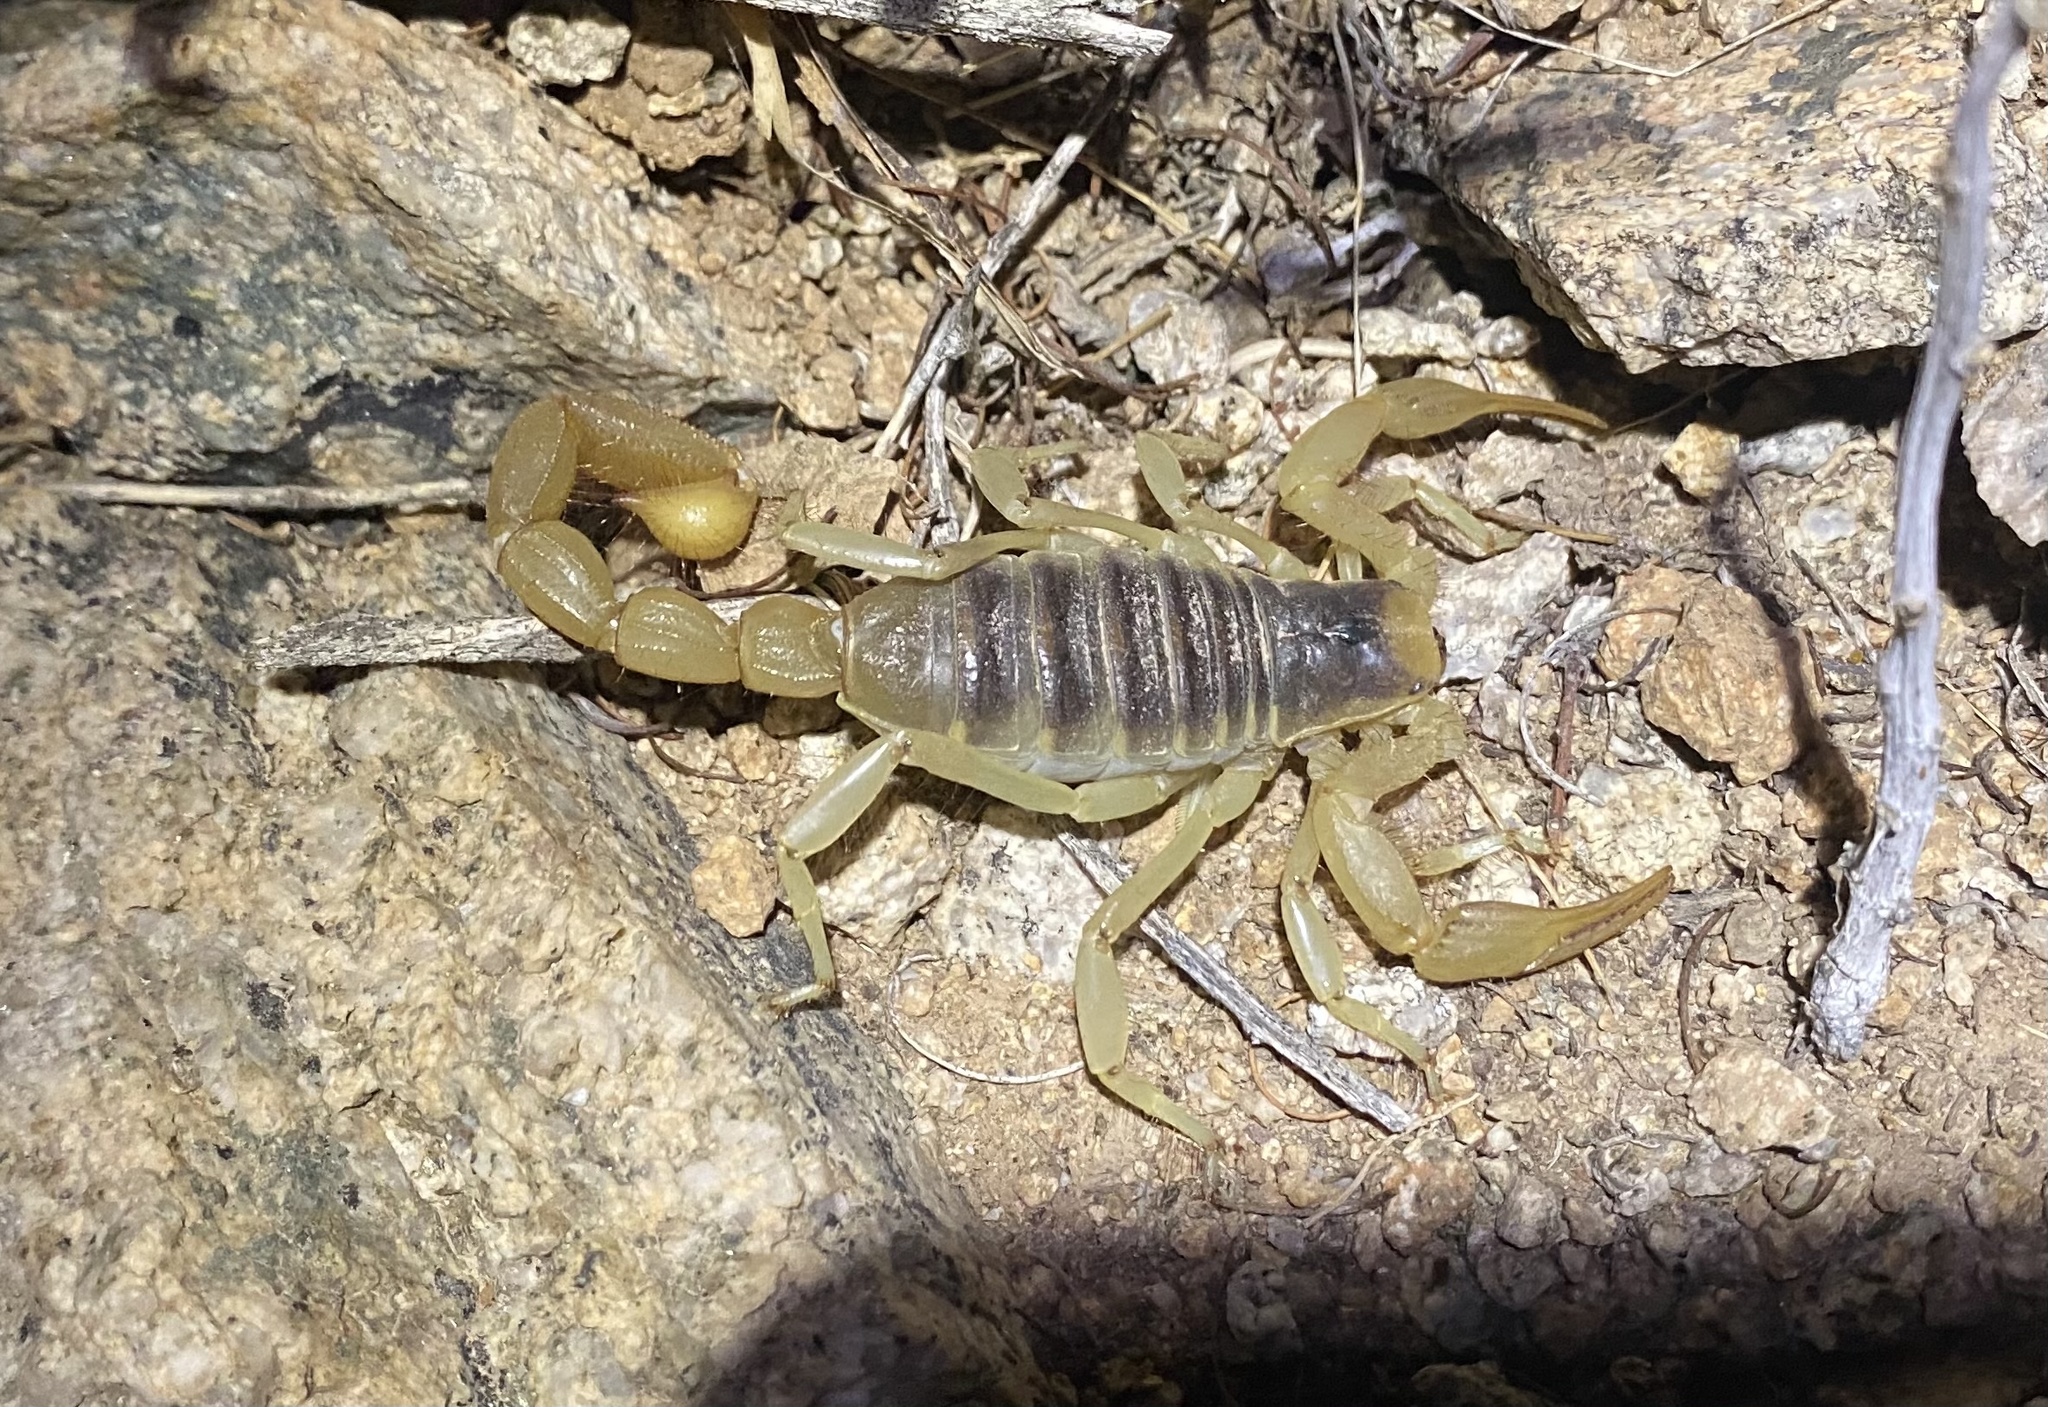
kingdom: Animalia
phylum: Arthropoda
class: Arachnida
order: Scorpiones
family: Hadruridae
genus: Hadrurus
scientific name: Hadrurus arizonensis
